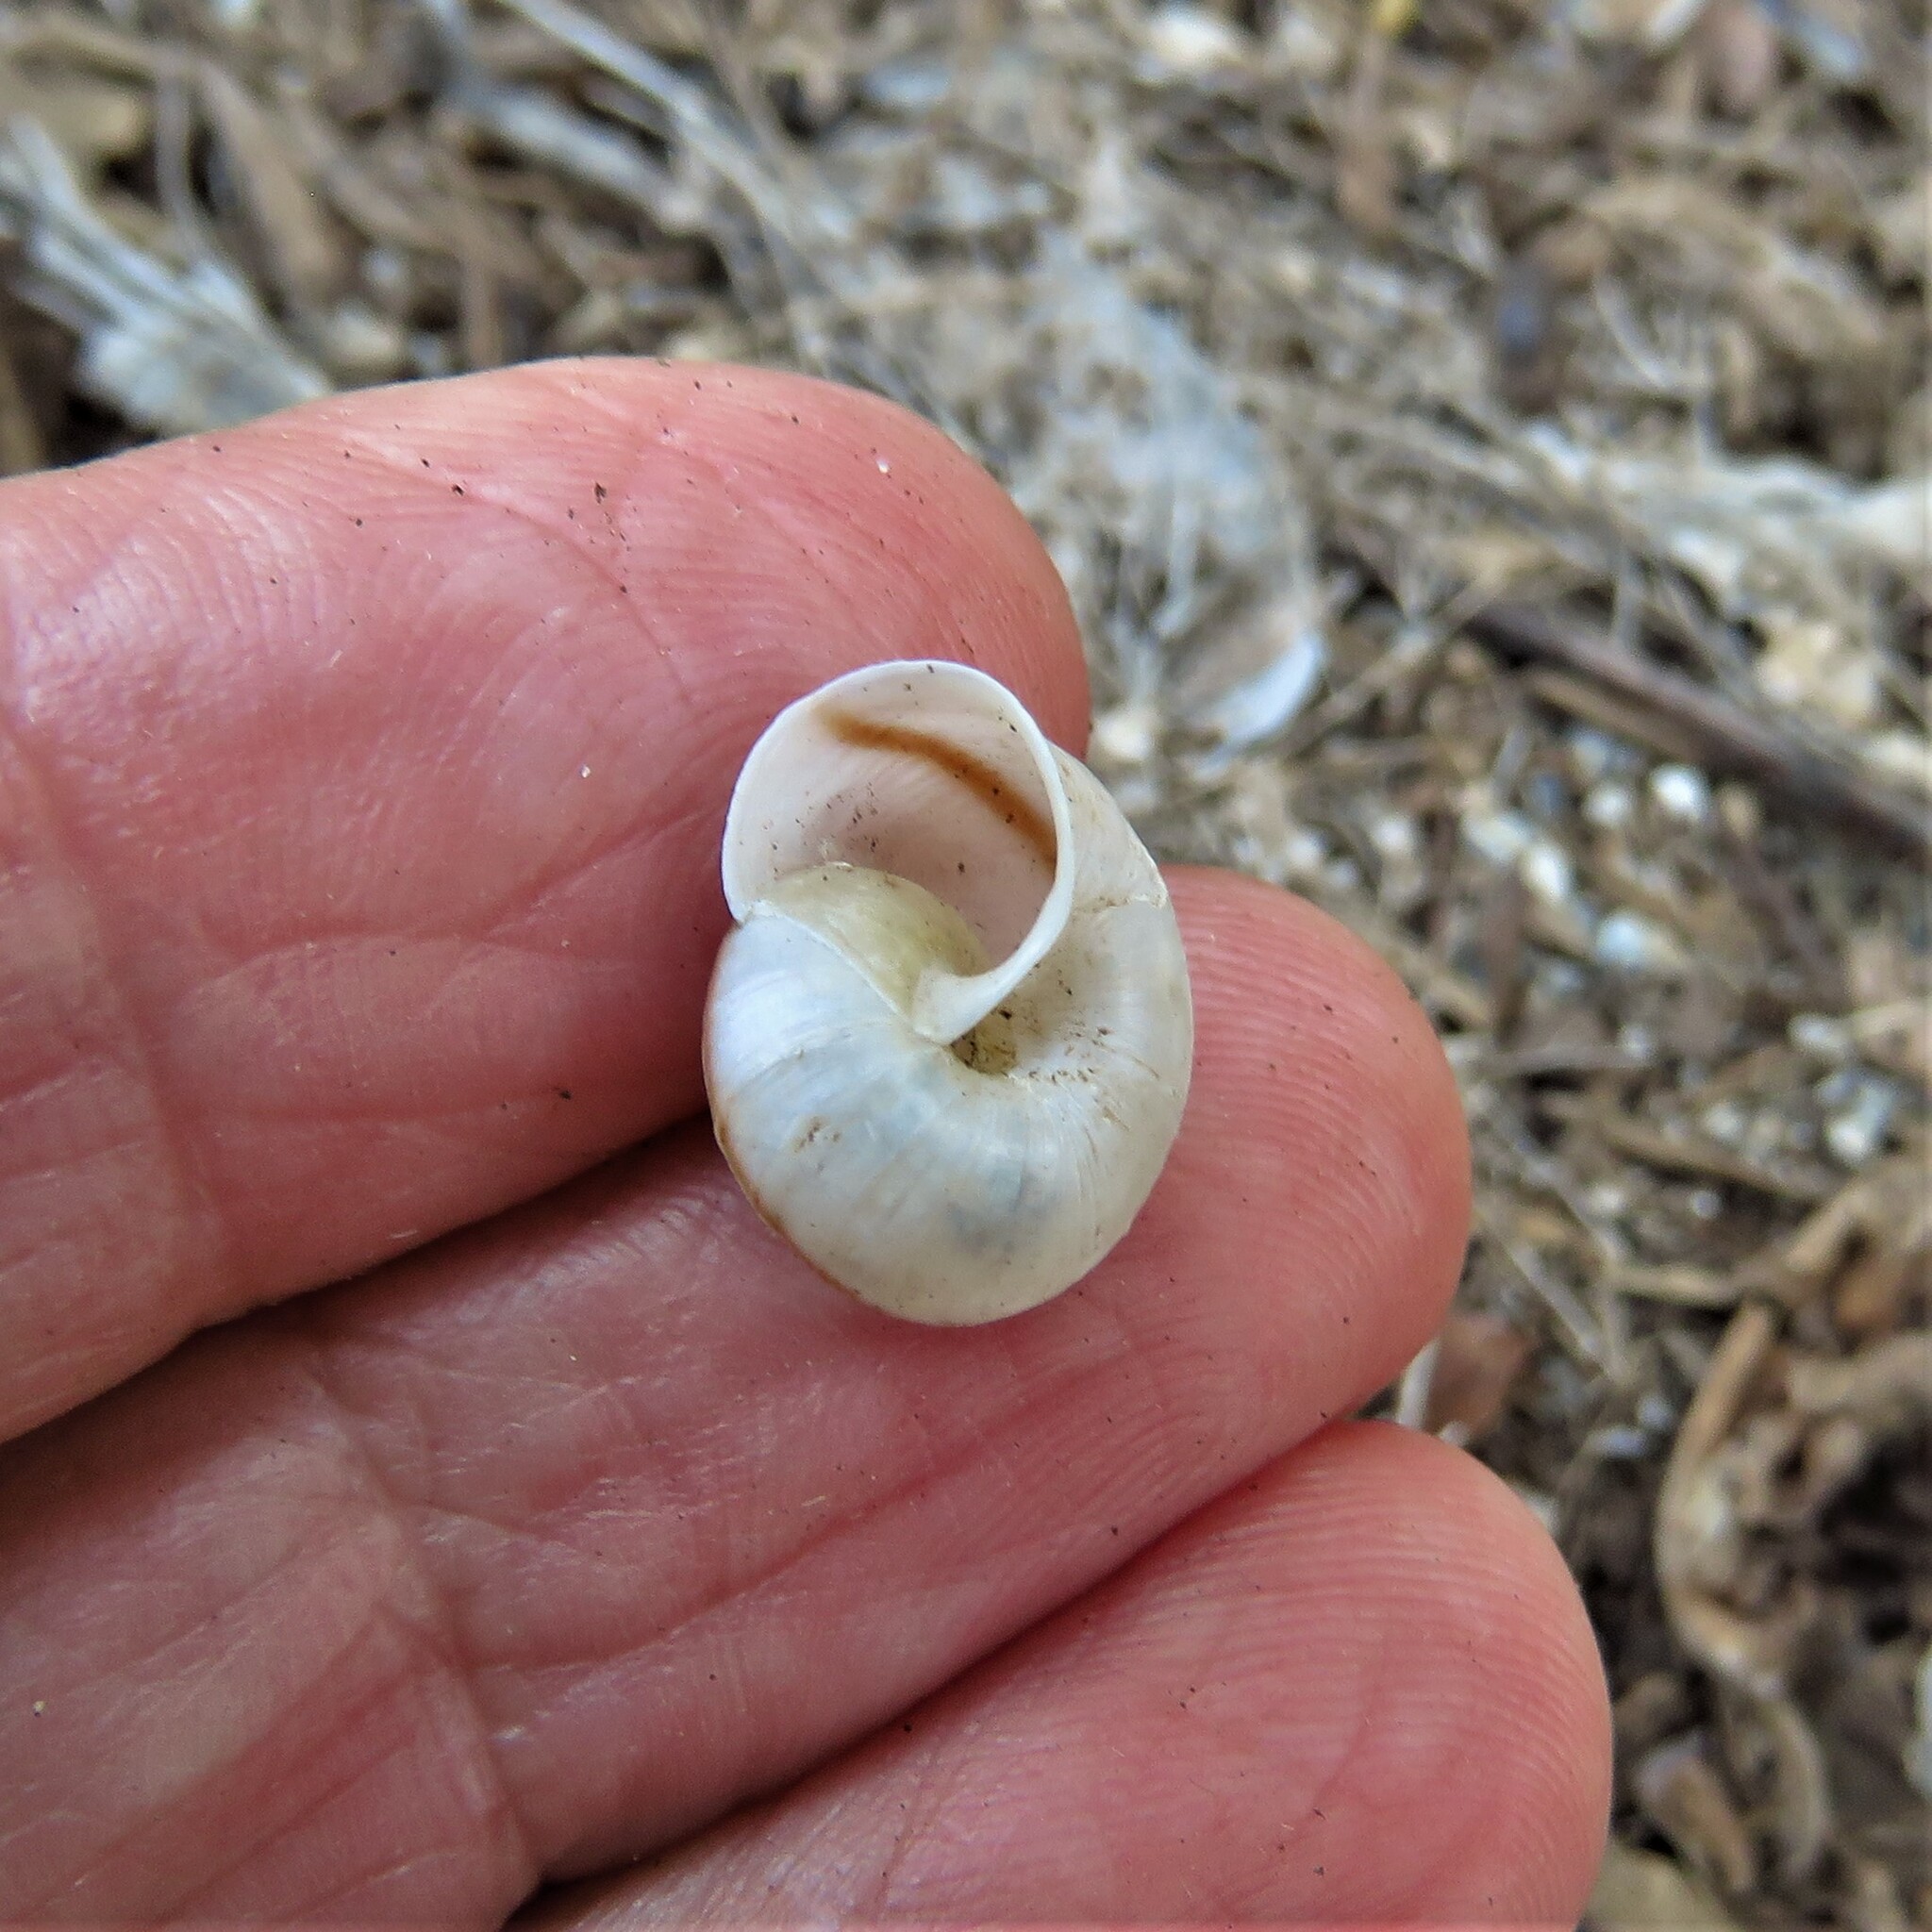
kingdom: Animalia
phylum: Mollusca
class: Gastropoda
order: Stylommatophora
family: Camaenidae
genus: Bradybaena
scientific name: Bradybaena similaris
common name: Asian trampsnail
